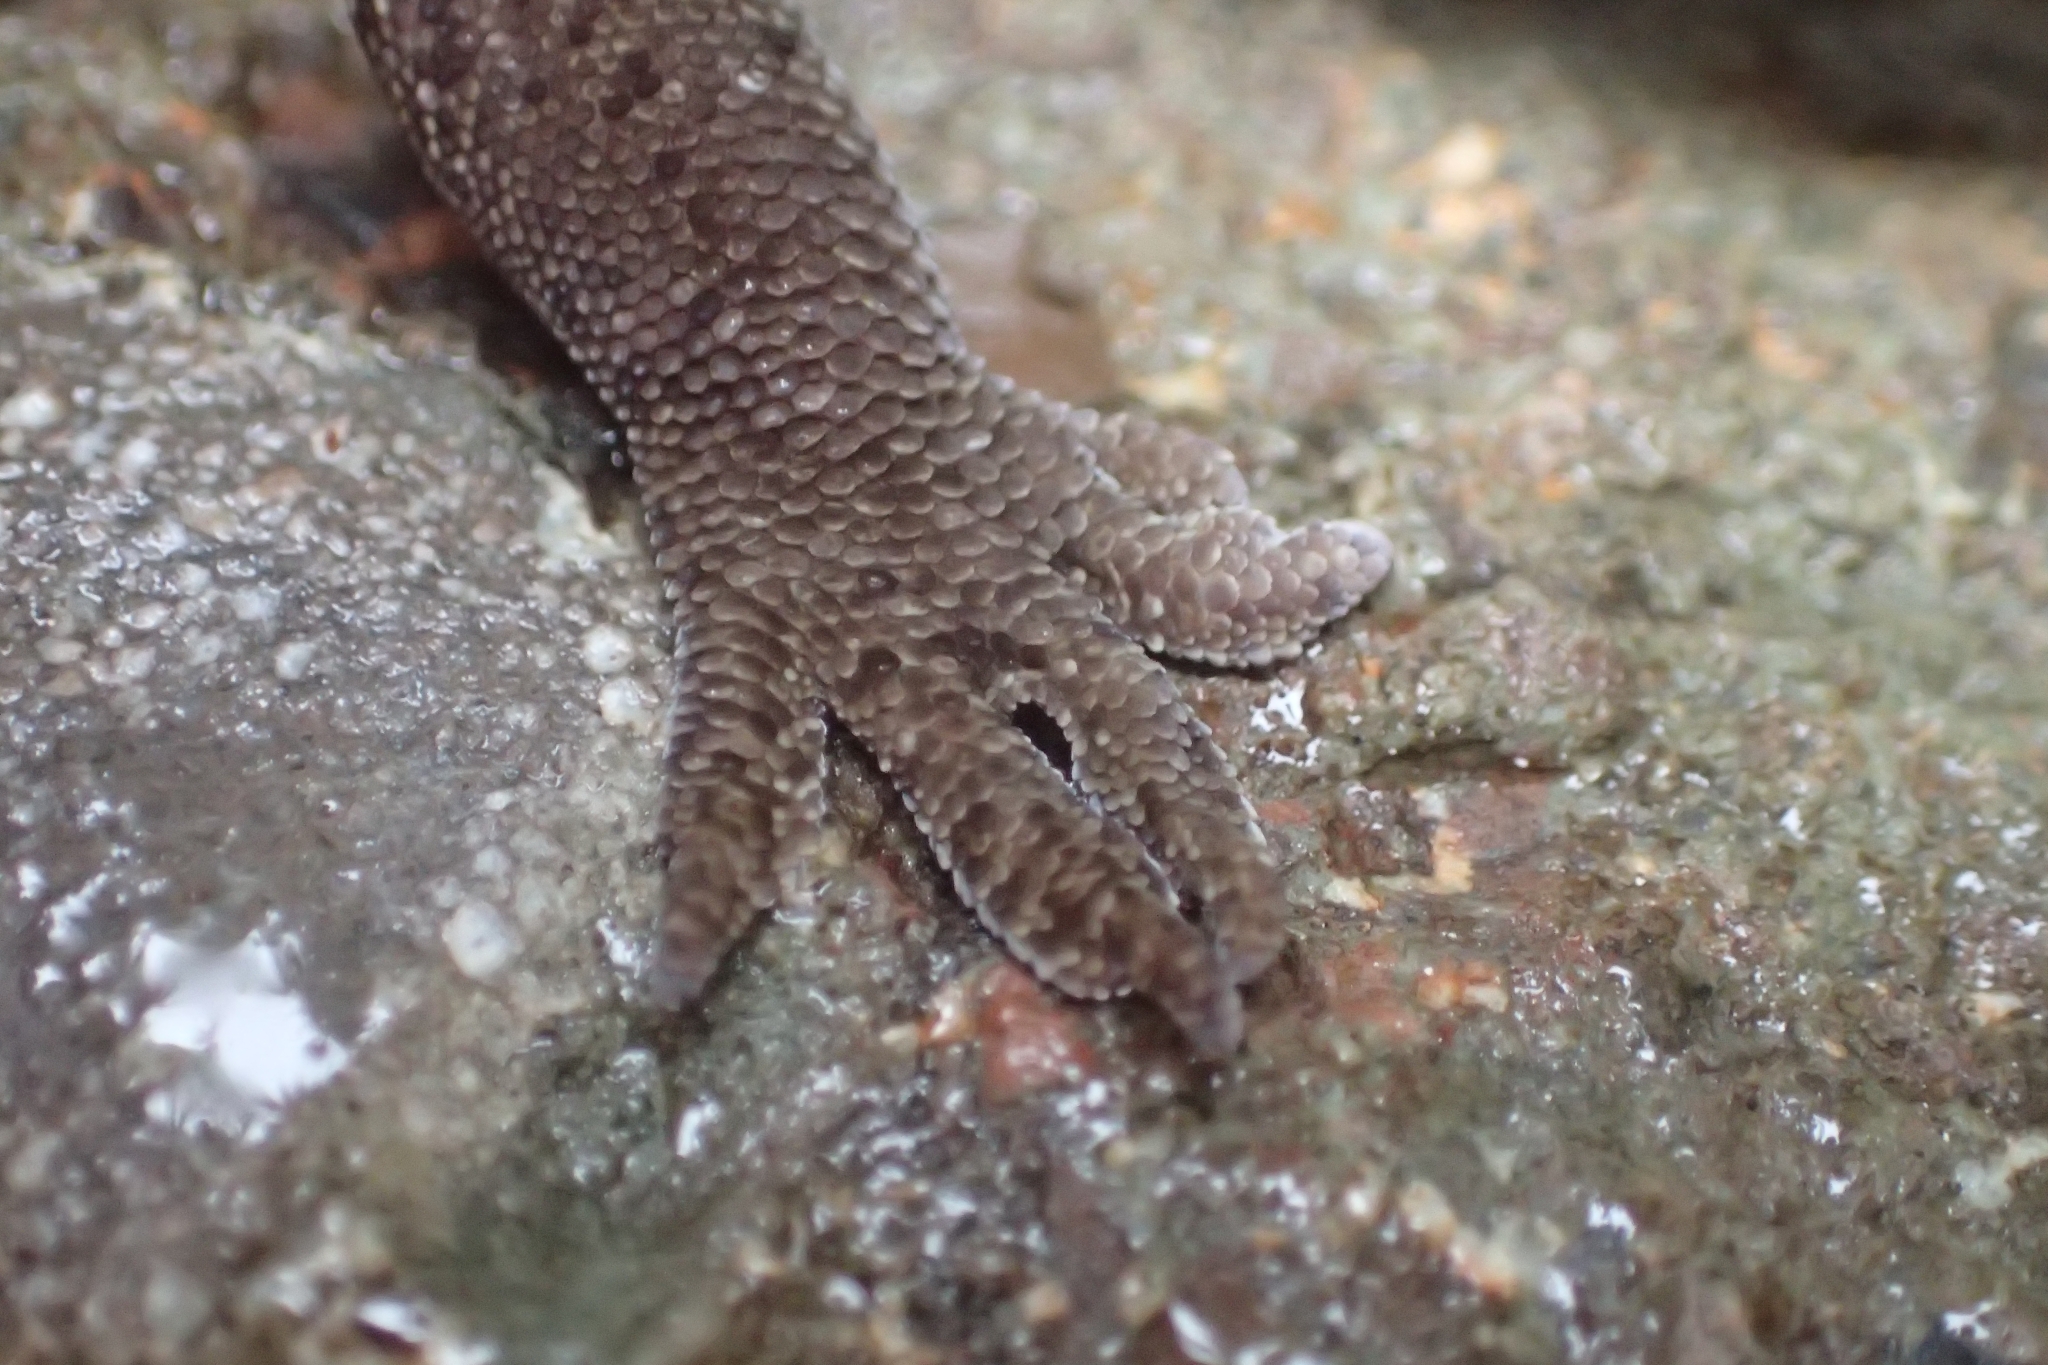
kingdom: Animalia
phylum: Chordata
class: Squamata
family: Diplodactylidae
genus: Woodworthia
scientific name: Woodworthia
